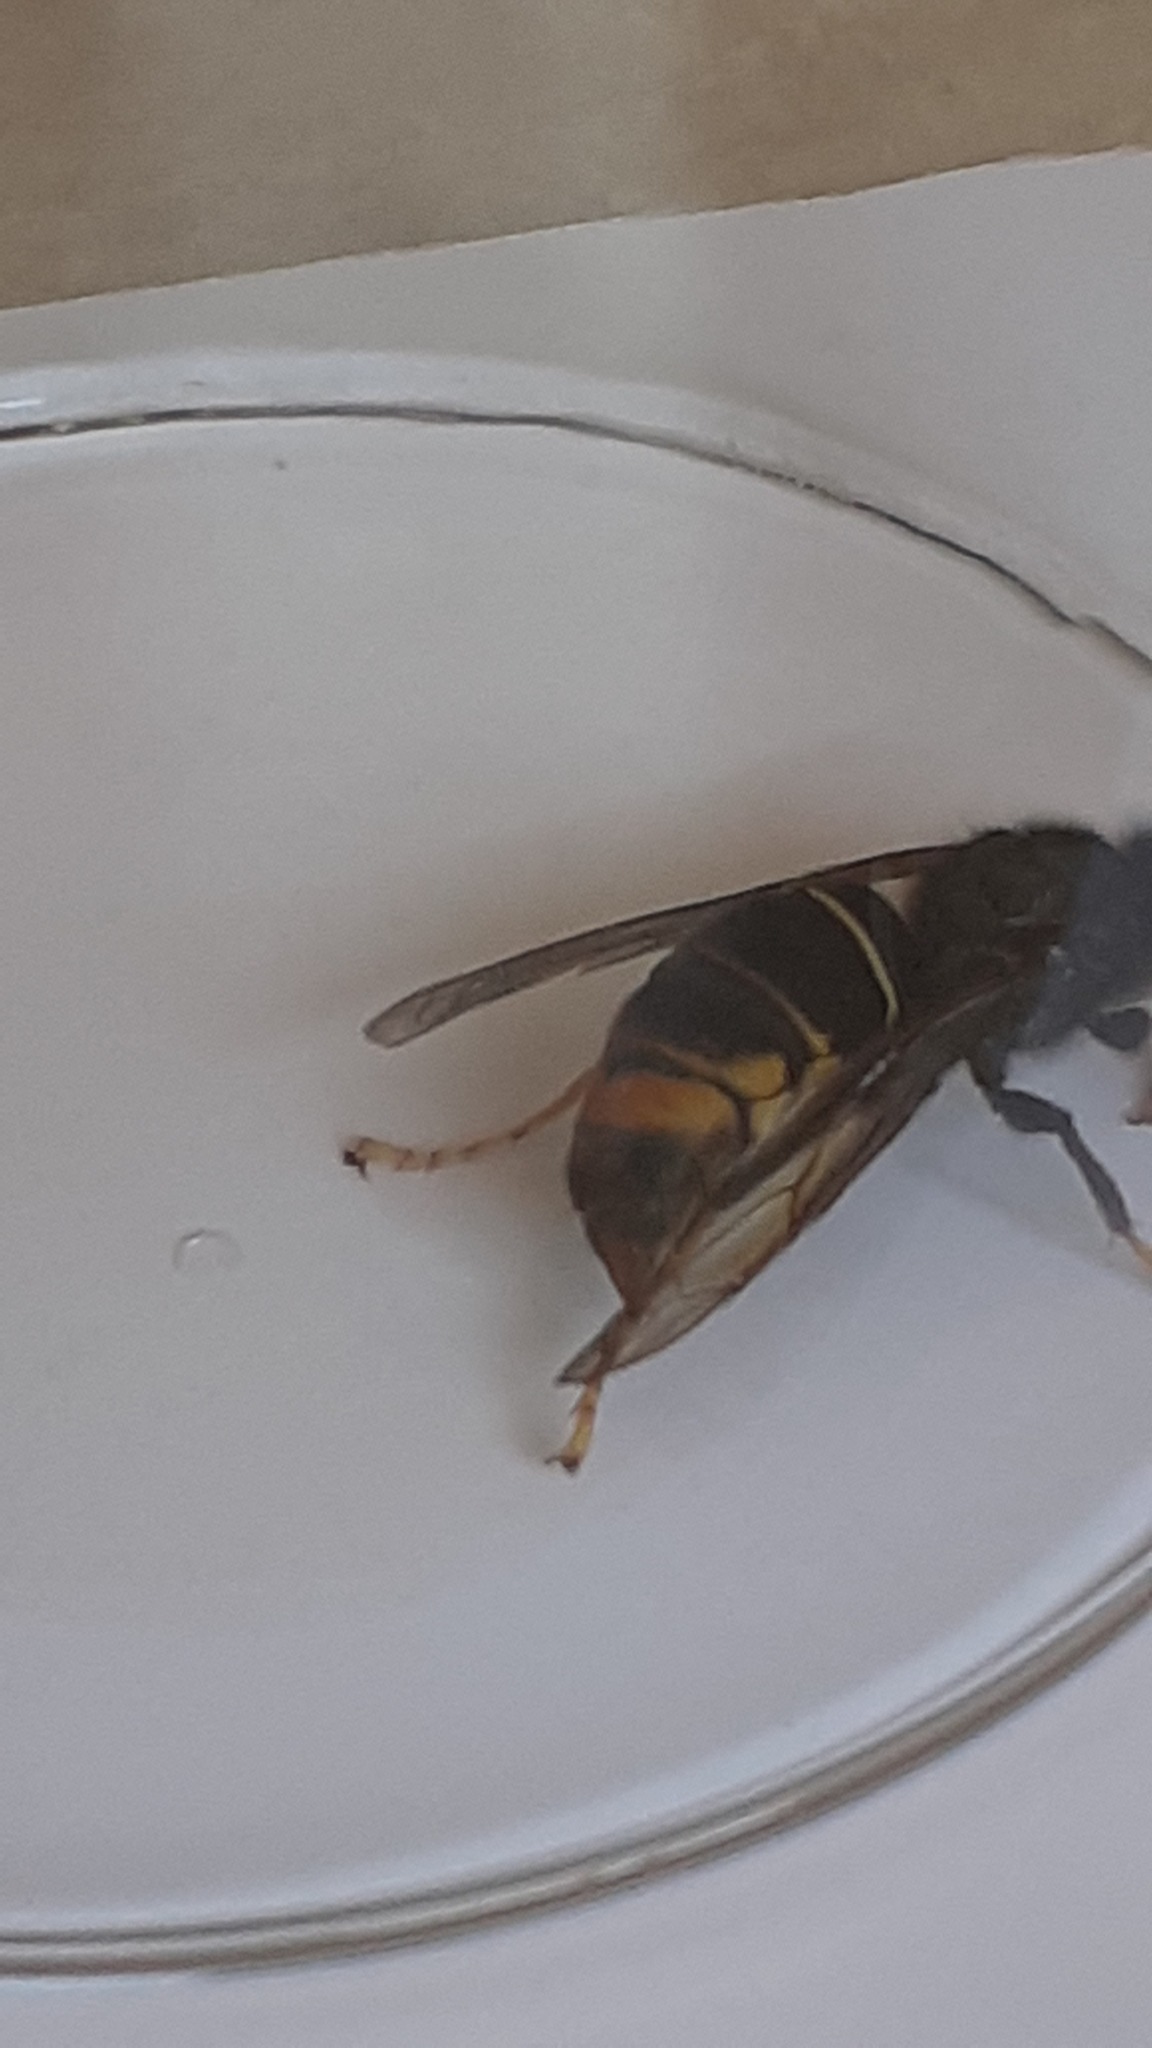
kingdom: Animalia
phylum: Arthropoda
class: Insecta
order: Hymenoptera
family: Vespidae
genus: Vespa
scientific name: Vespa velutina
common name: Asian hornet
